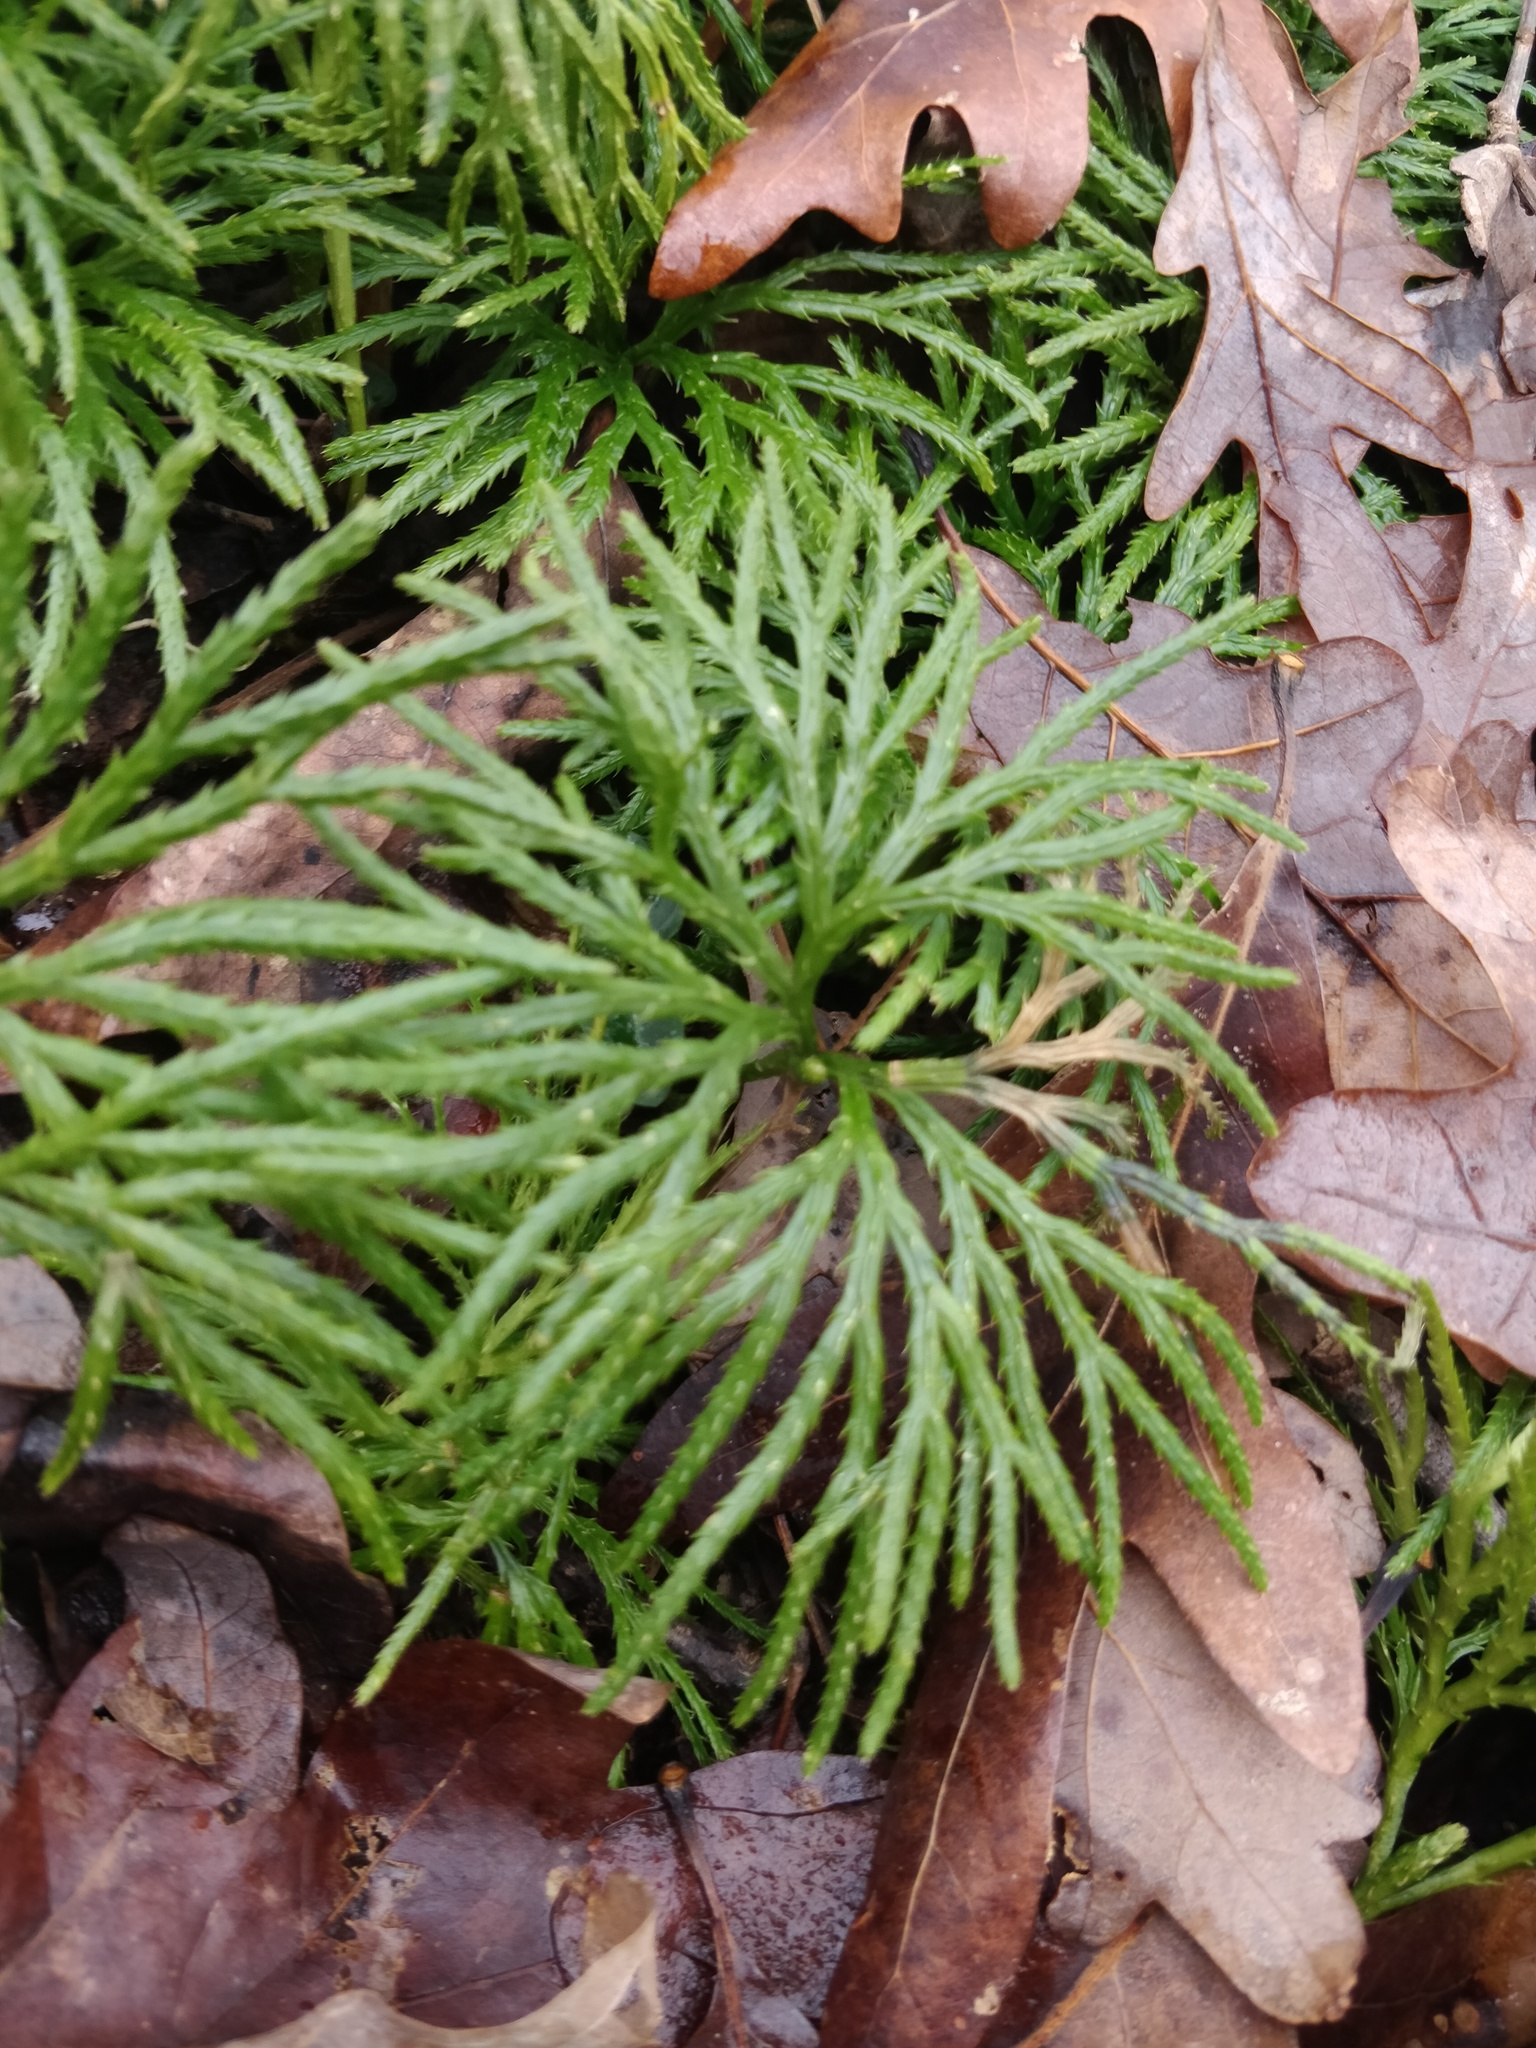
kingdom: Plantae
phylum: Tracheophyta
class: Lycopodiopsida
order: Lycopodiales
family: Lycopodiaceae
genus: Diphasiastrum
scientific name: Diphasiastrum digitatum
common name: Southern running-pine
